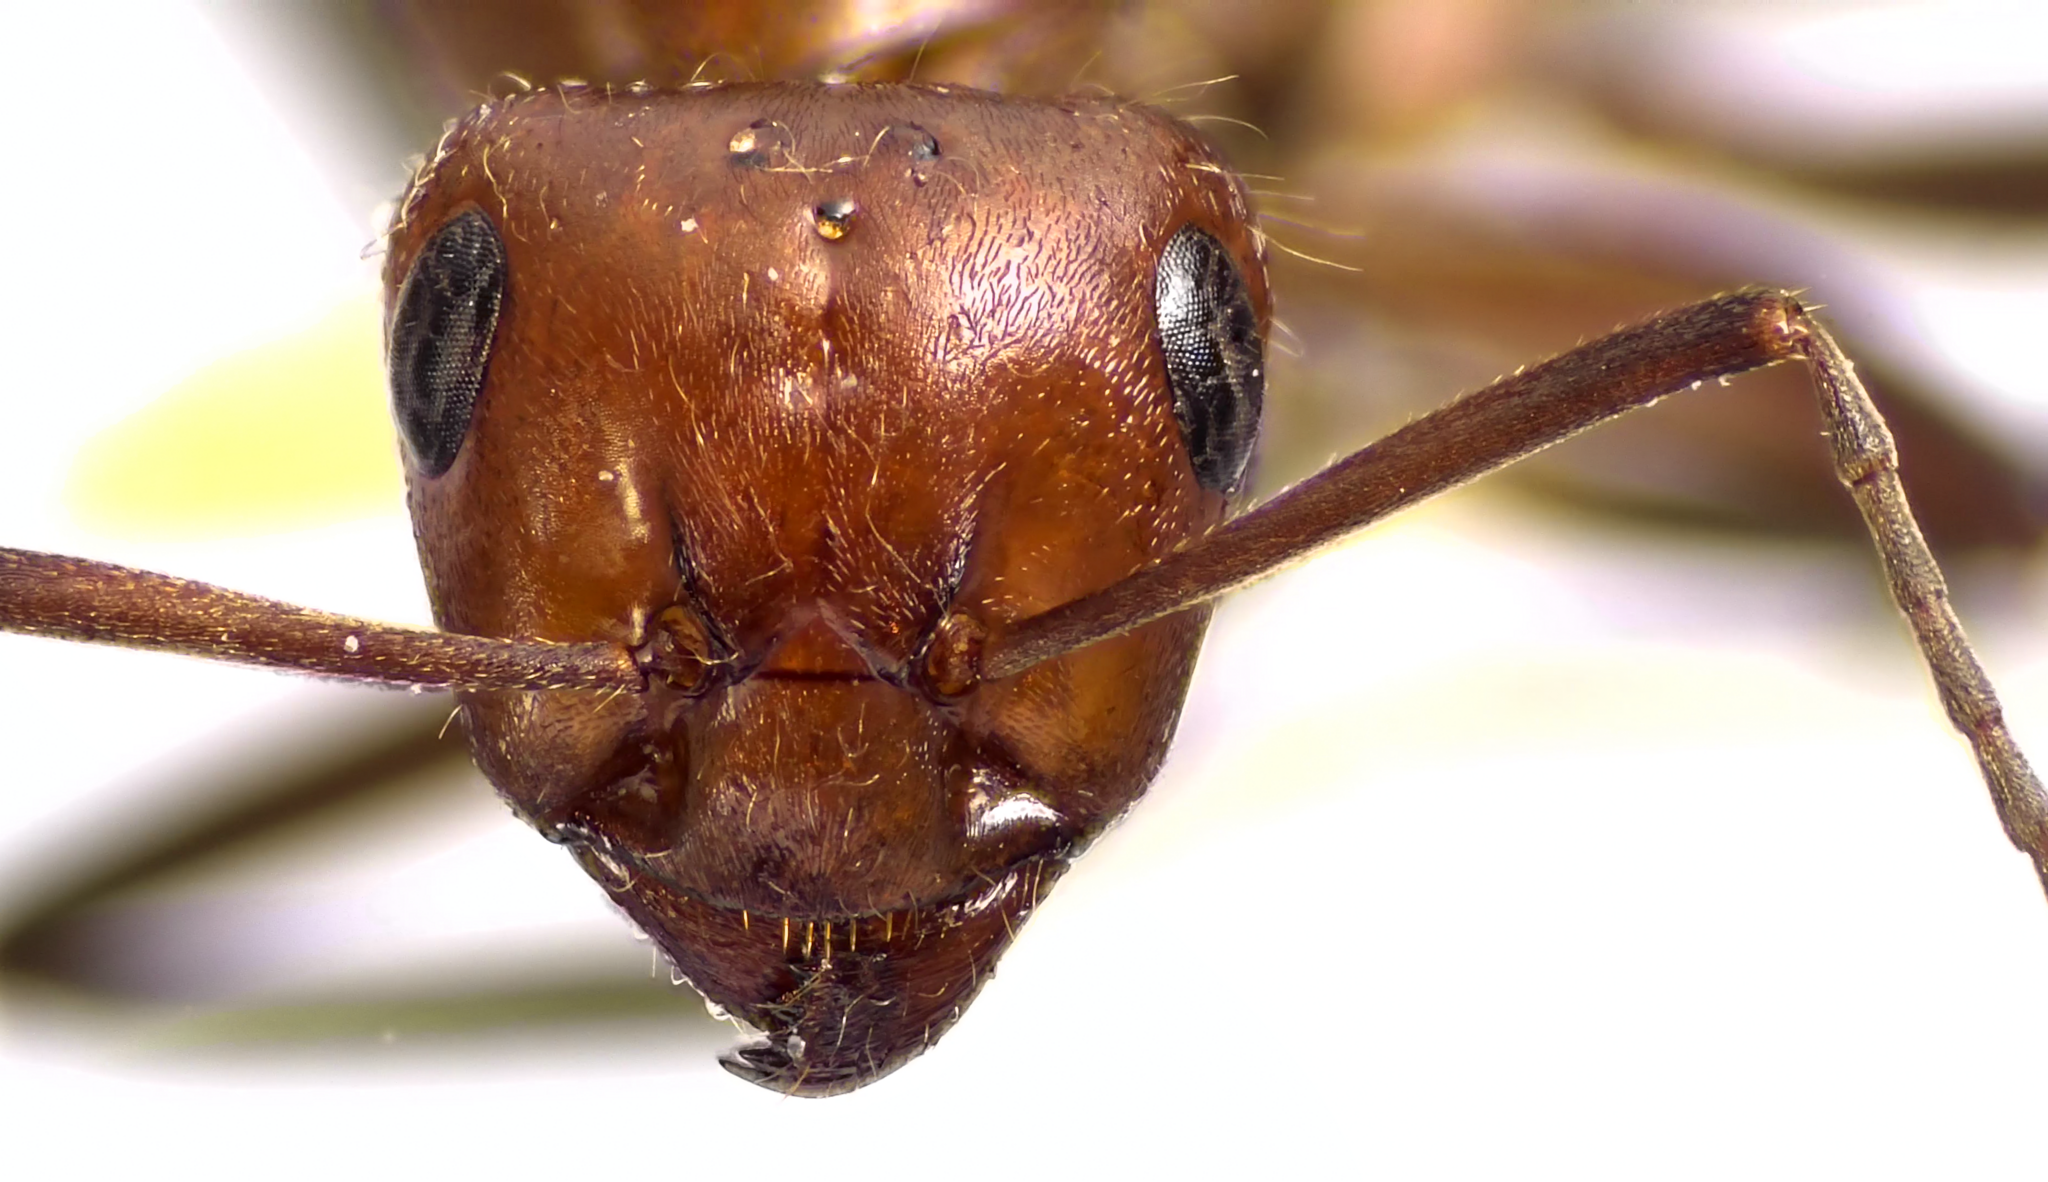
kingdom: Animalia
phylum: Arthropoda
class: Insecta
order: Hymenoptera
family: Formicidae
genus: Formica
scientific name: Formica obscuriventris
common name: Northern red wood ant
